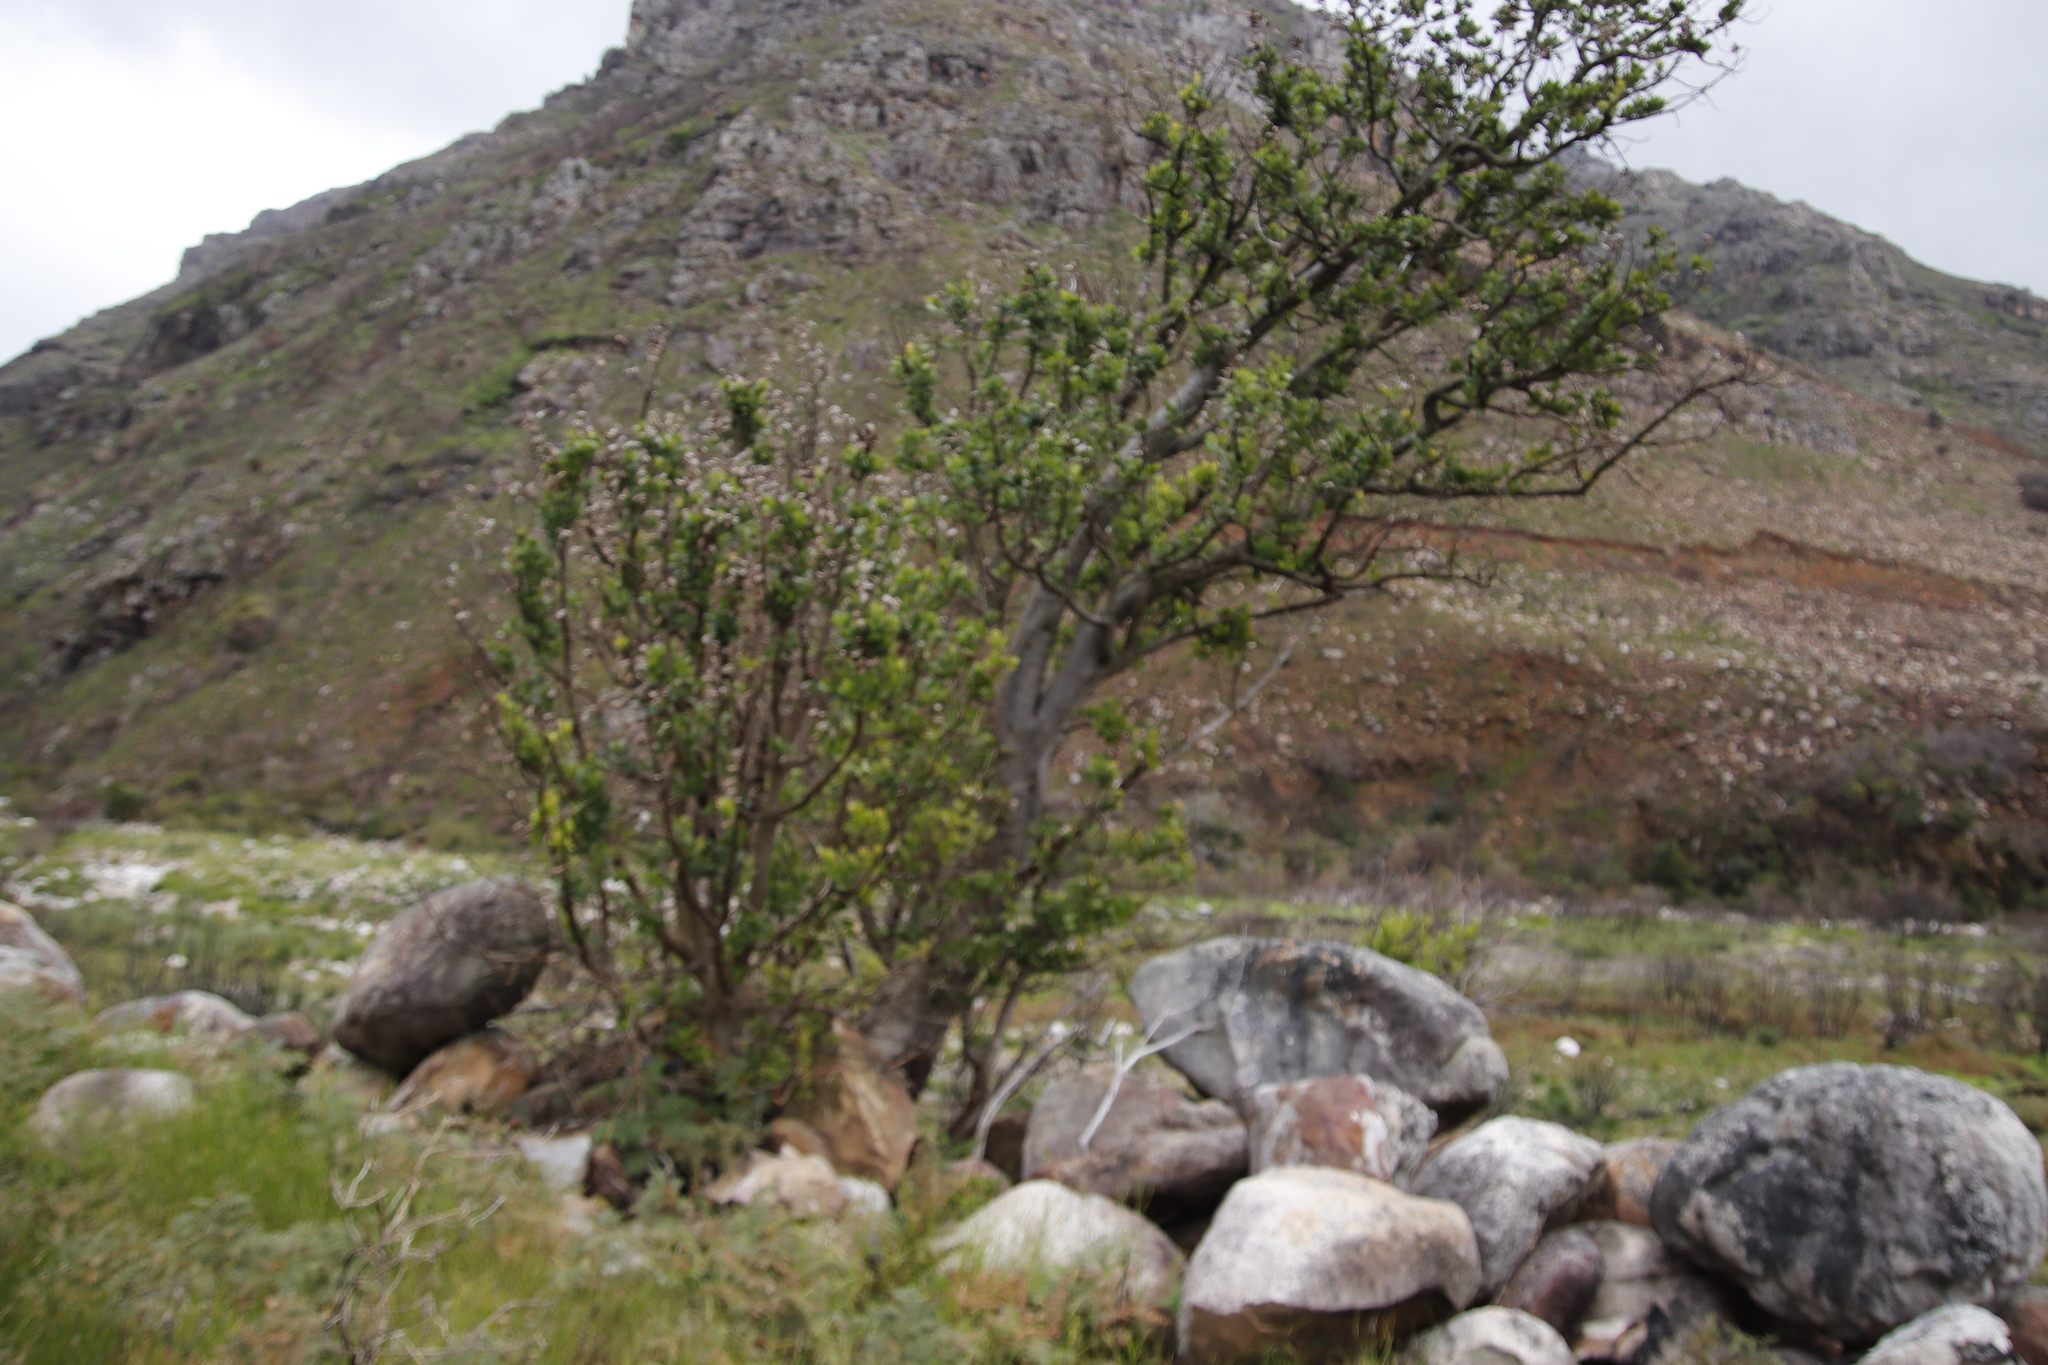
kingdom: Plantae
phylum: Tracheophyta
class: Magnoliopsida
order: Sapindales
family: Anacardiaceae
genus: Heeria
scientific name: Heeria argentea
